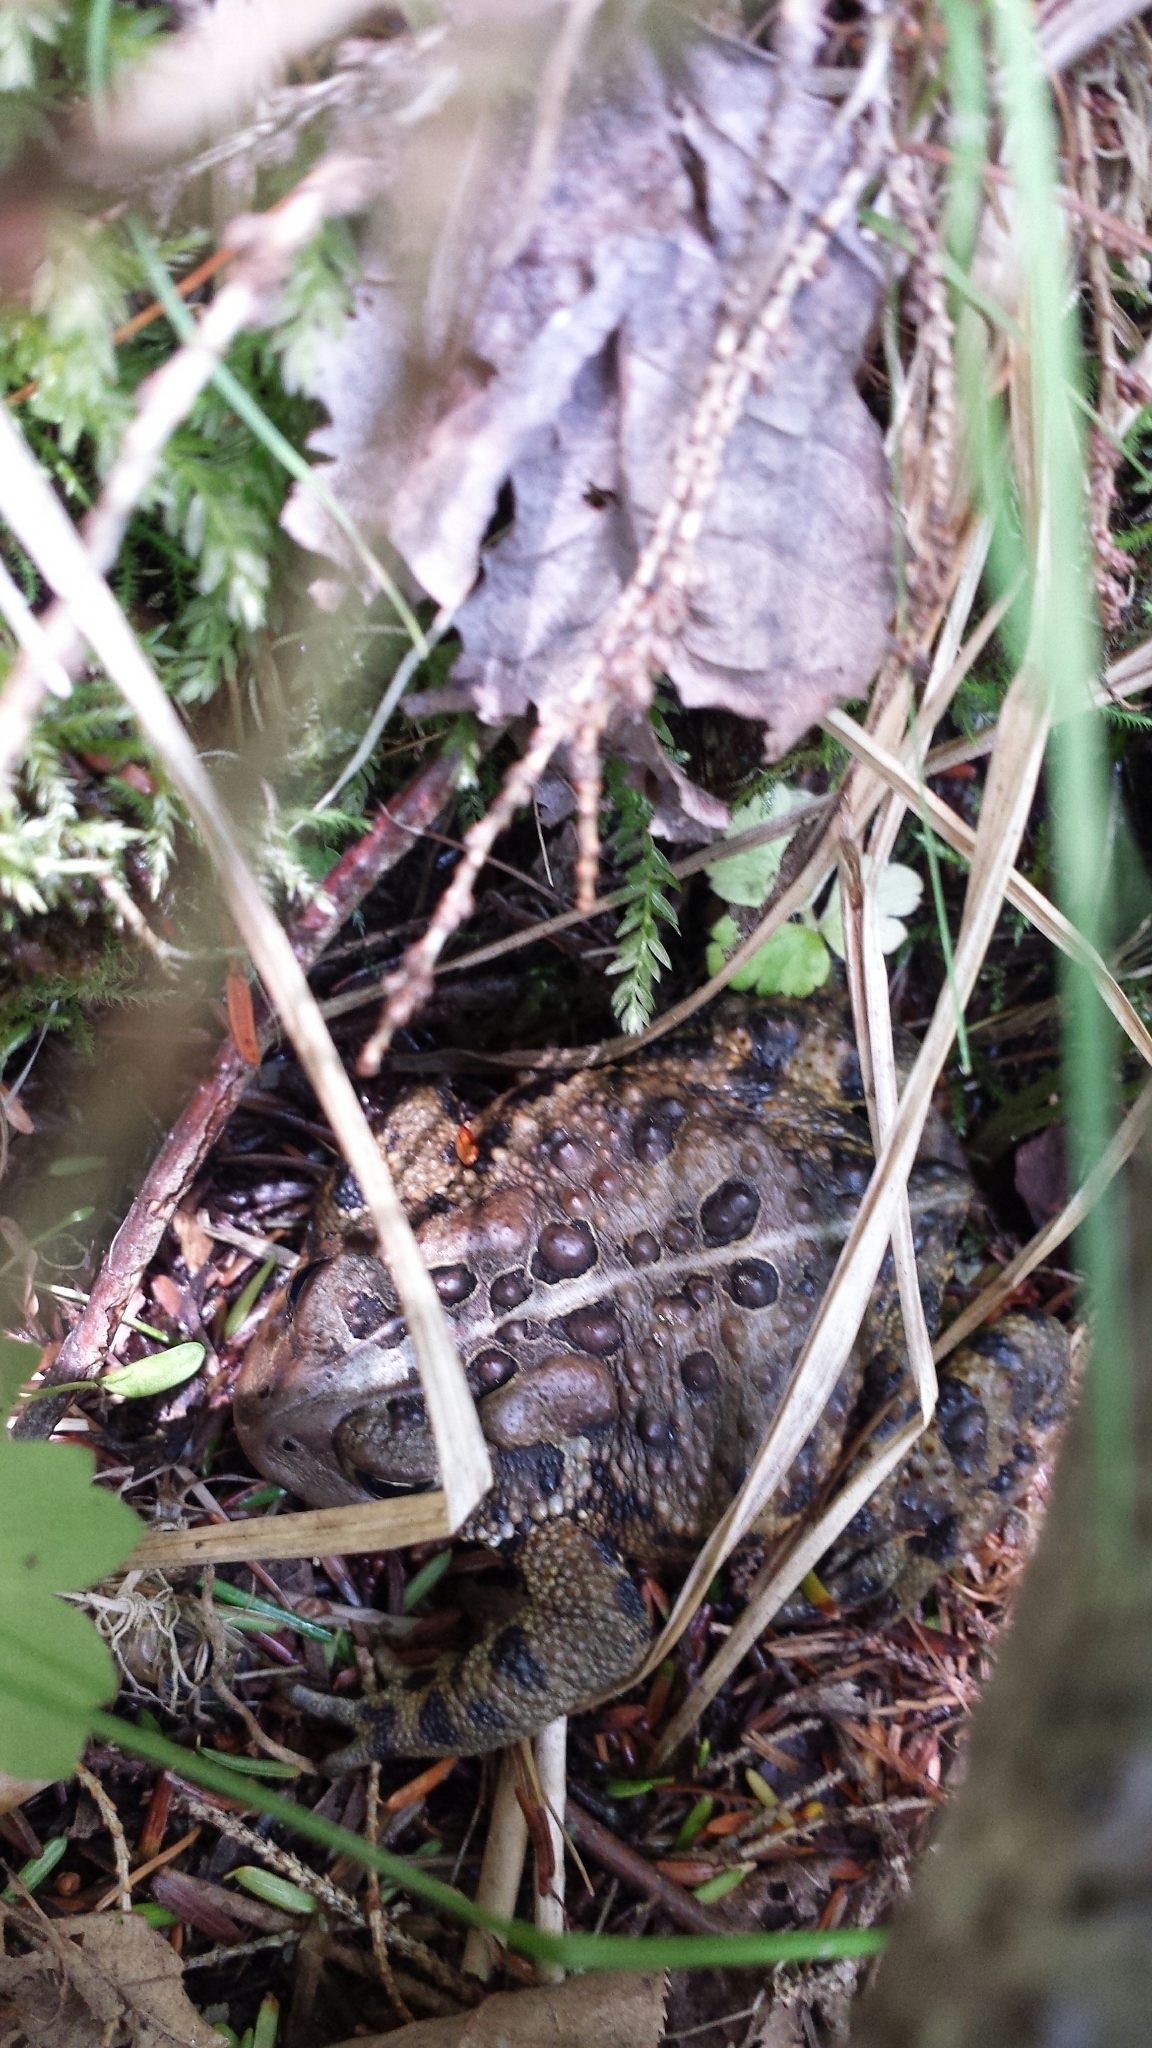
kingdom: Animalia
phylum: Chordata
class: Amphibia
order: Anura
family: Bufonidae
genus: Anaxyrus
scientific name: Anaxyrus americanus
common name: American toad
